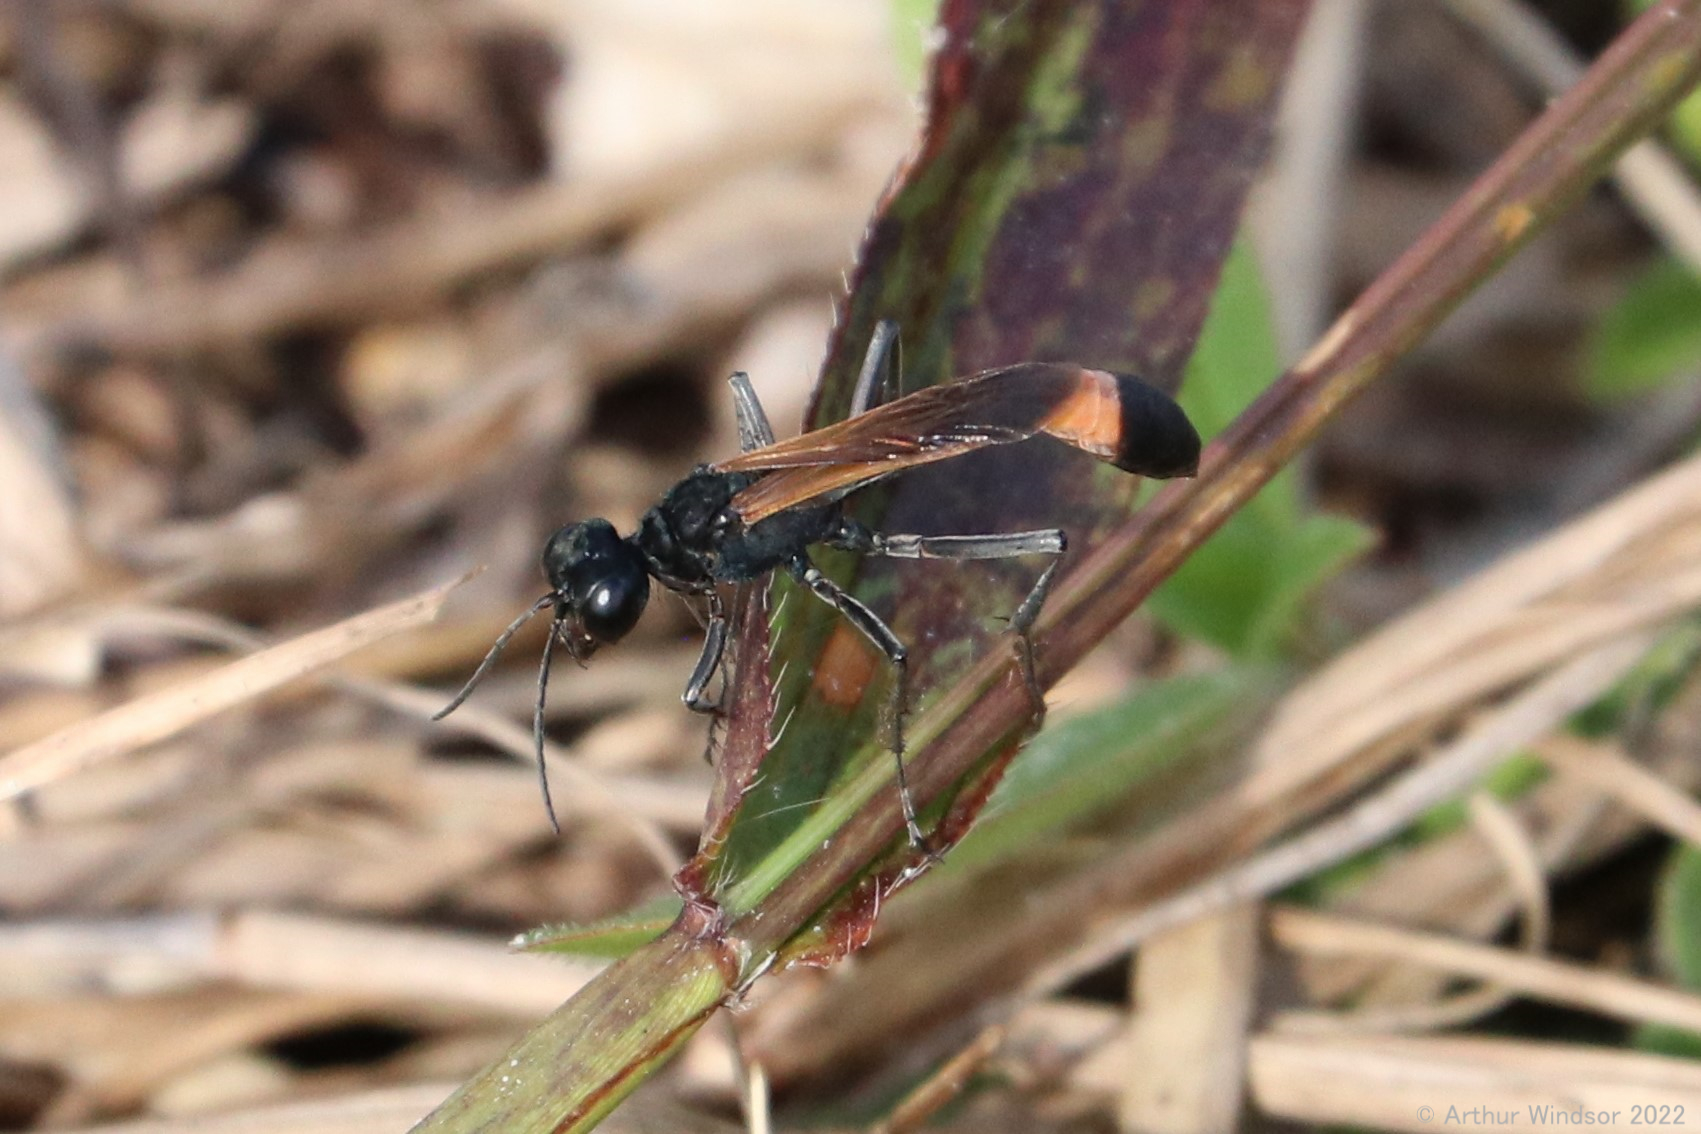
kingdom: Animalia
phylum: Arthropoda
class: Insecta
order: Hymenoptera
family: Sphecidae
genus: Ammophila
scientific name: Ammophila pictipennis
